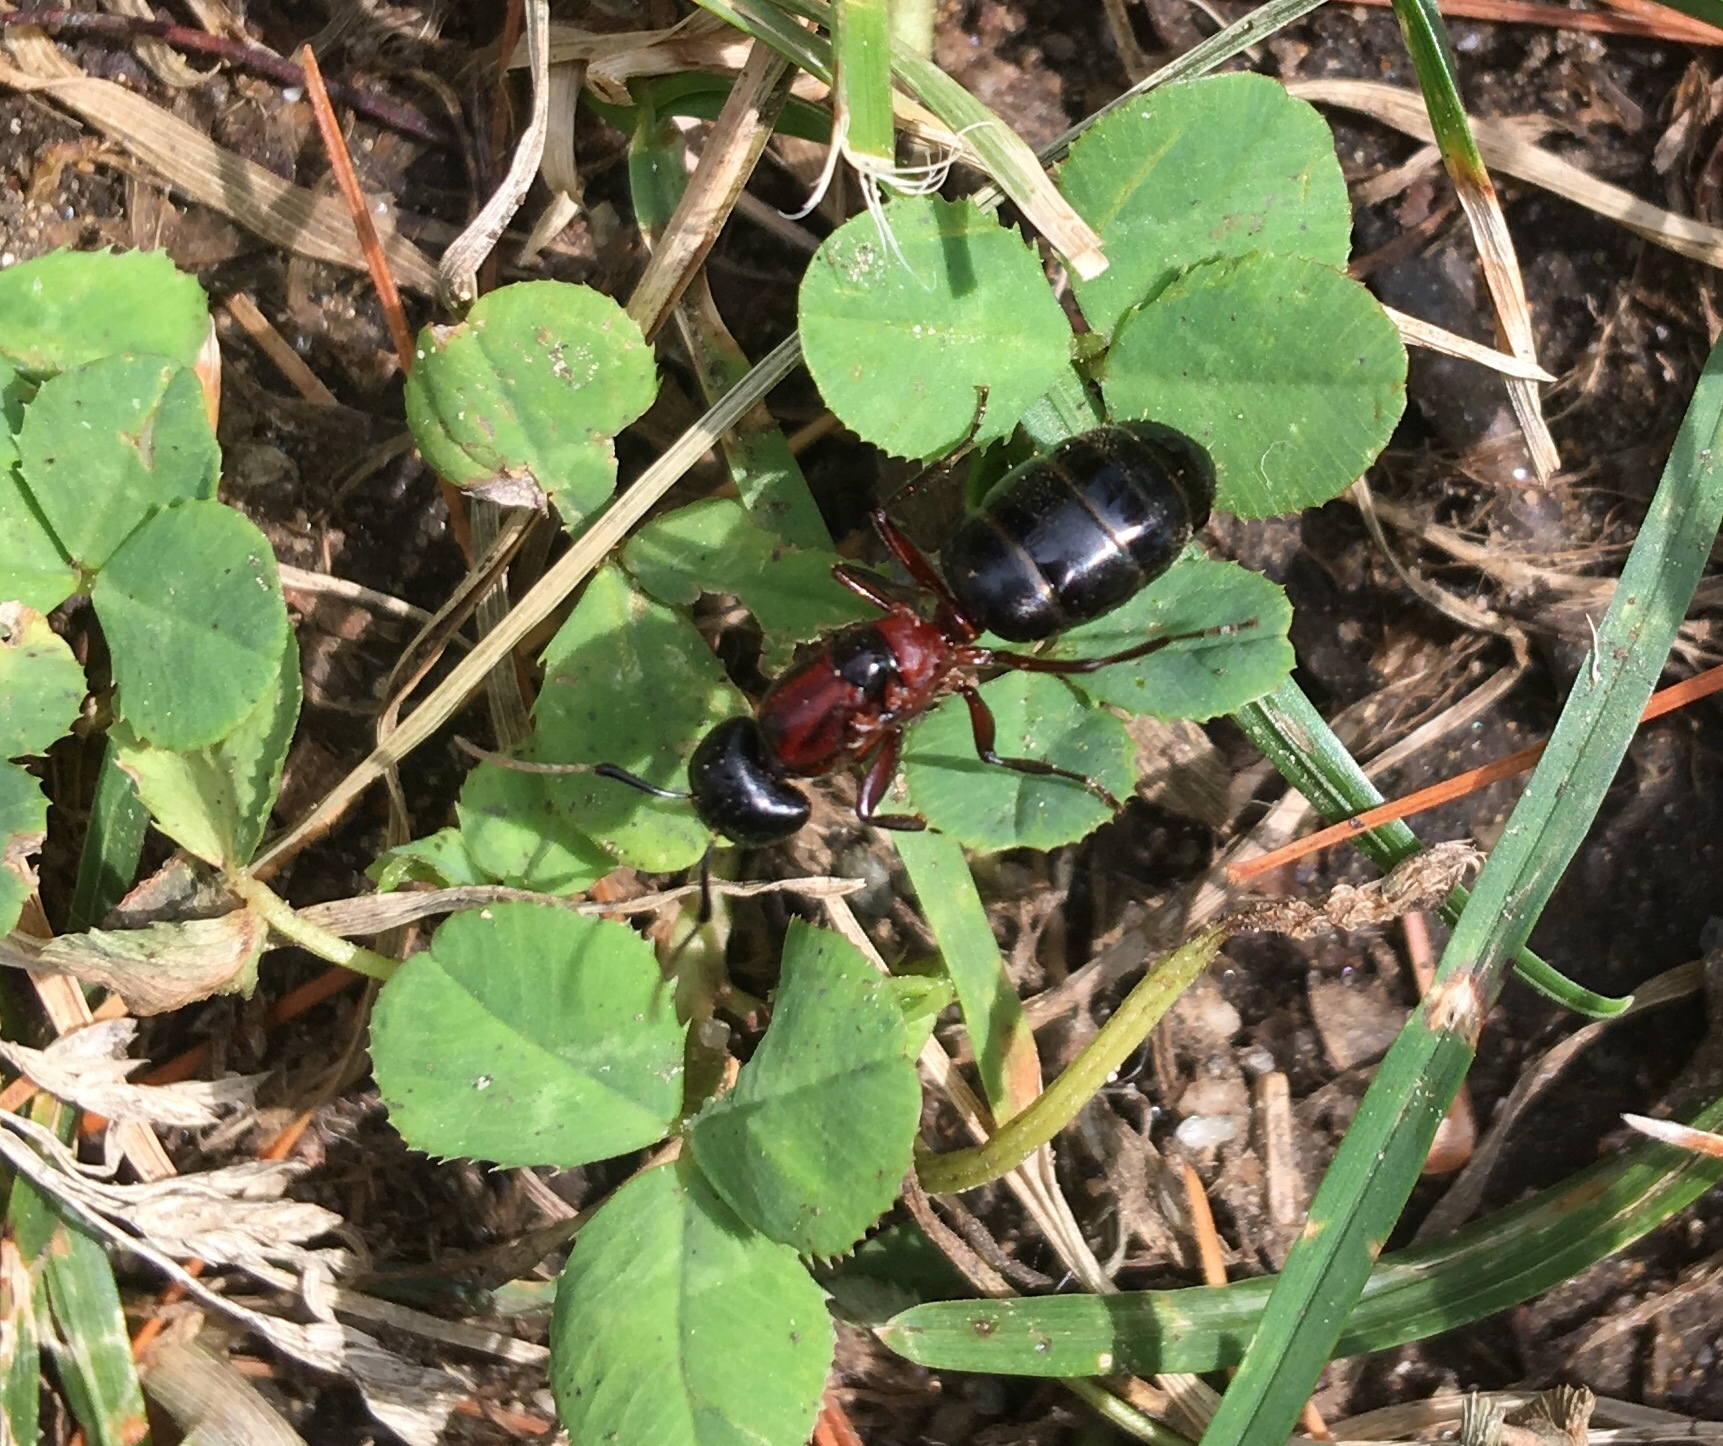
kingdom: Animalia
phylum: Arthropoda
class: Insecta
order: Hymenoptera
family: Formicidae
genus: Camponotus
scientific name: Camponotus novaeboracensis
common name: New york carpenter ant
